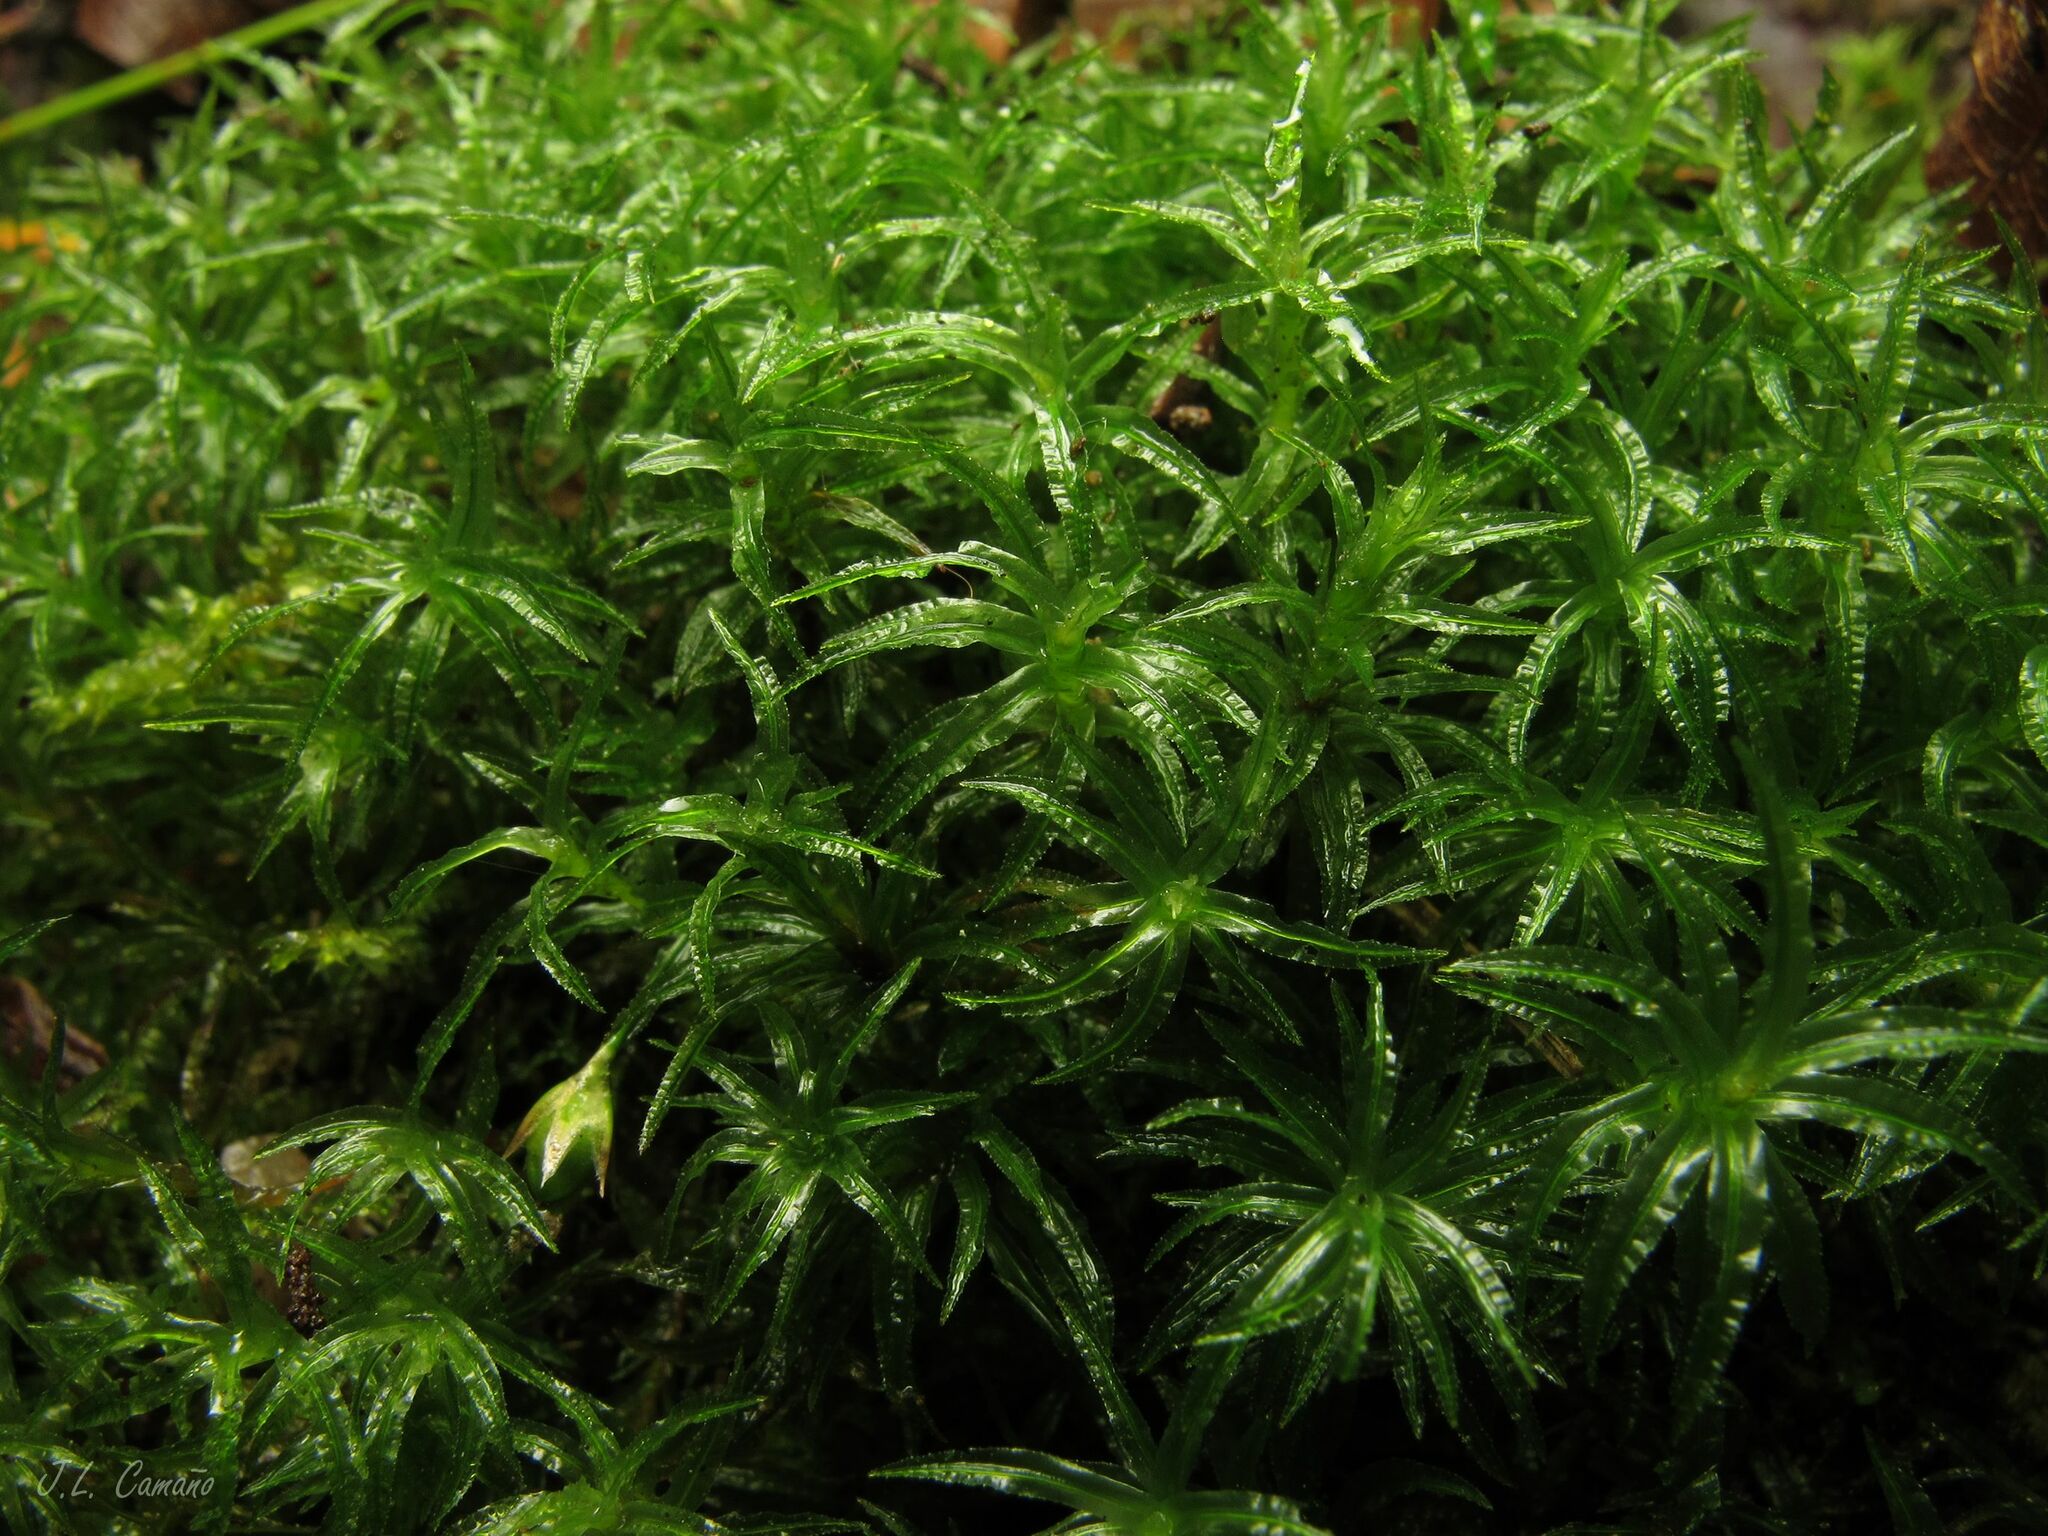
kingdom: Plantae
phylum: Bryophyta
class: Polytrichopsida
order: Polytrichales
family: Polytrichaceae
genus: Atrichum
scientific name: Atrichum undulatum
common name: Common smoothcap
